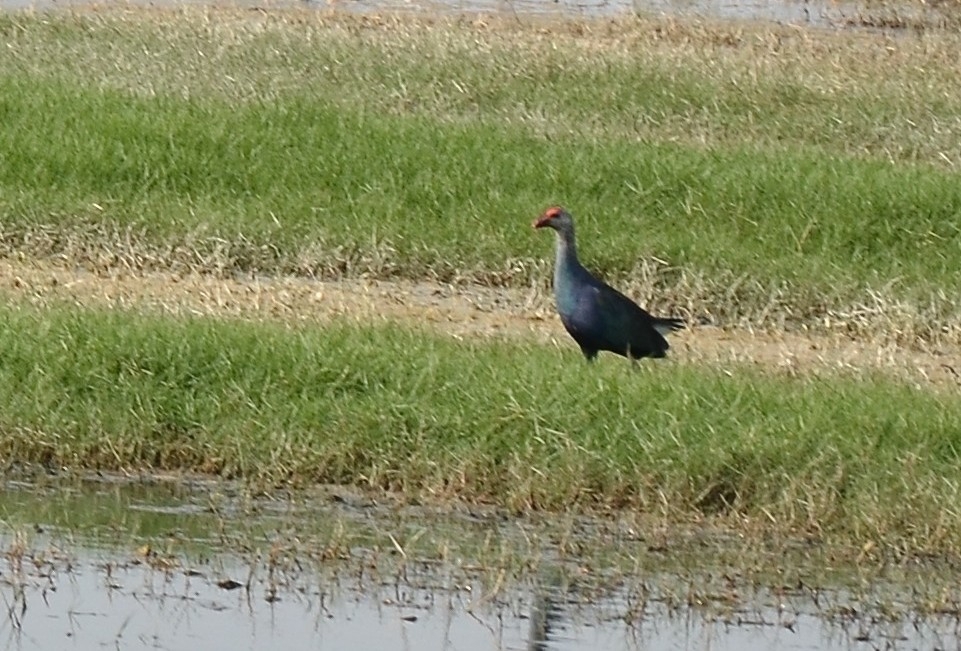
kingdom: Animalia
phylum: Chordata
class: Aves
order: Gruiformes
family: Rallidae
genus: Porphyrio
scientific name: Porphyrio porphyrio
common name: Purple swamphen
